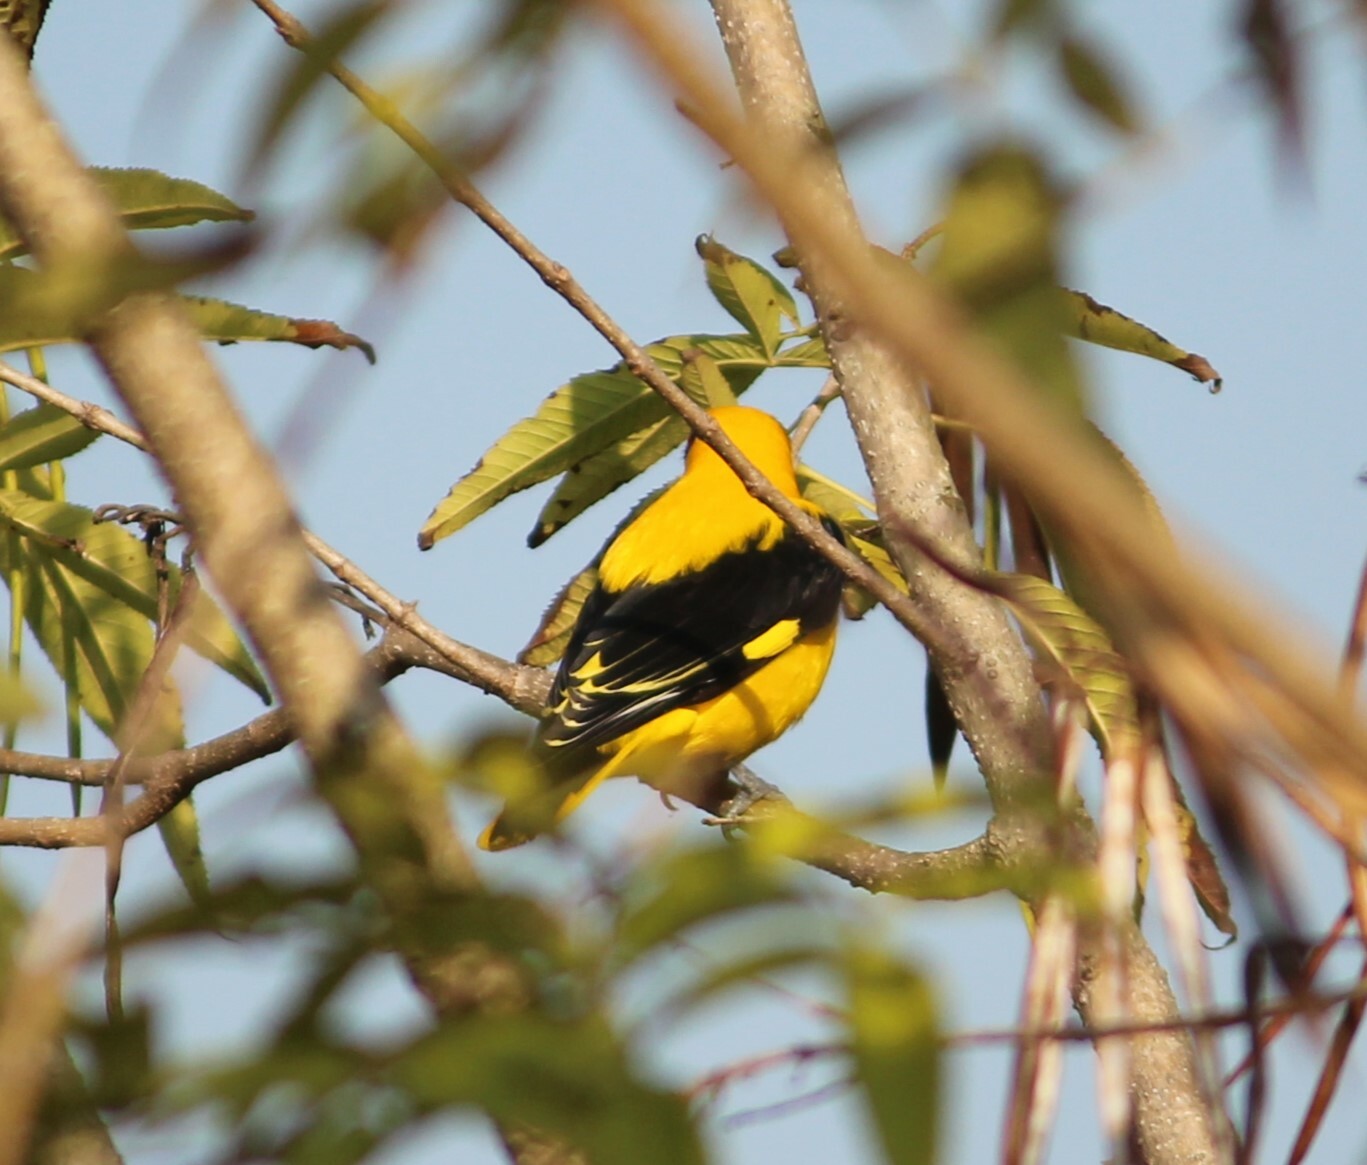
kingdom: Animalia
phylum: Chordata
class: Aves
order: Passeriformes
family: Oriolidae
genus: Oriolus
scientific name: Oriolus kundoo
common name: Indian golden oriole
